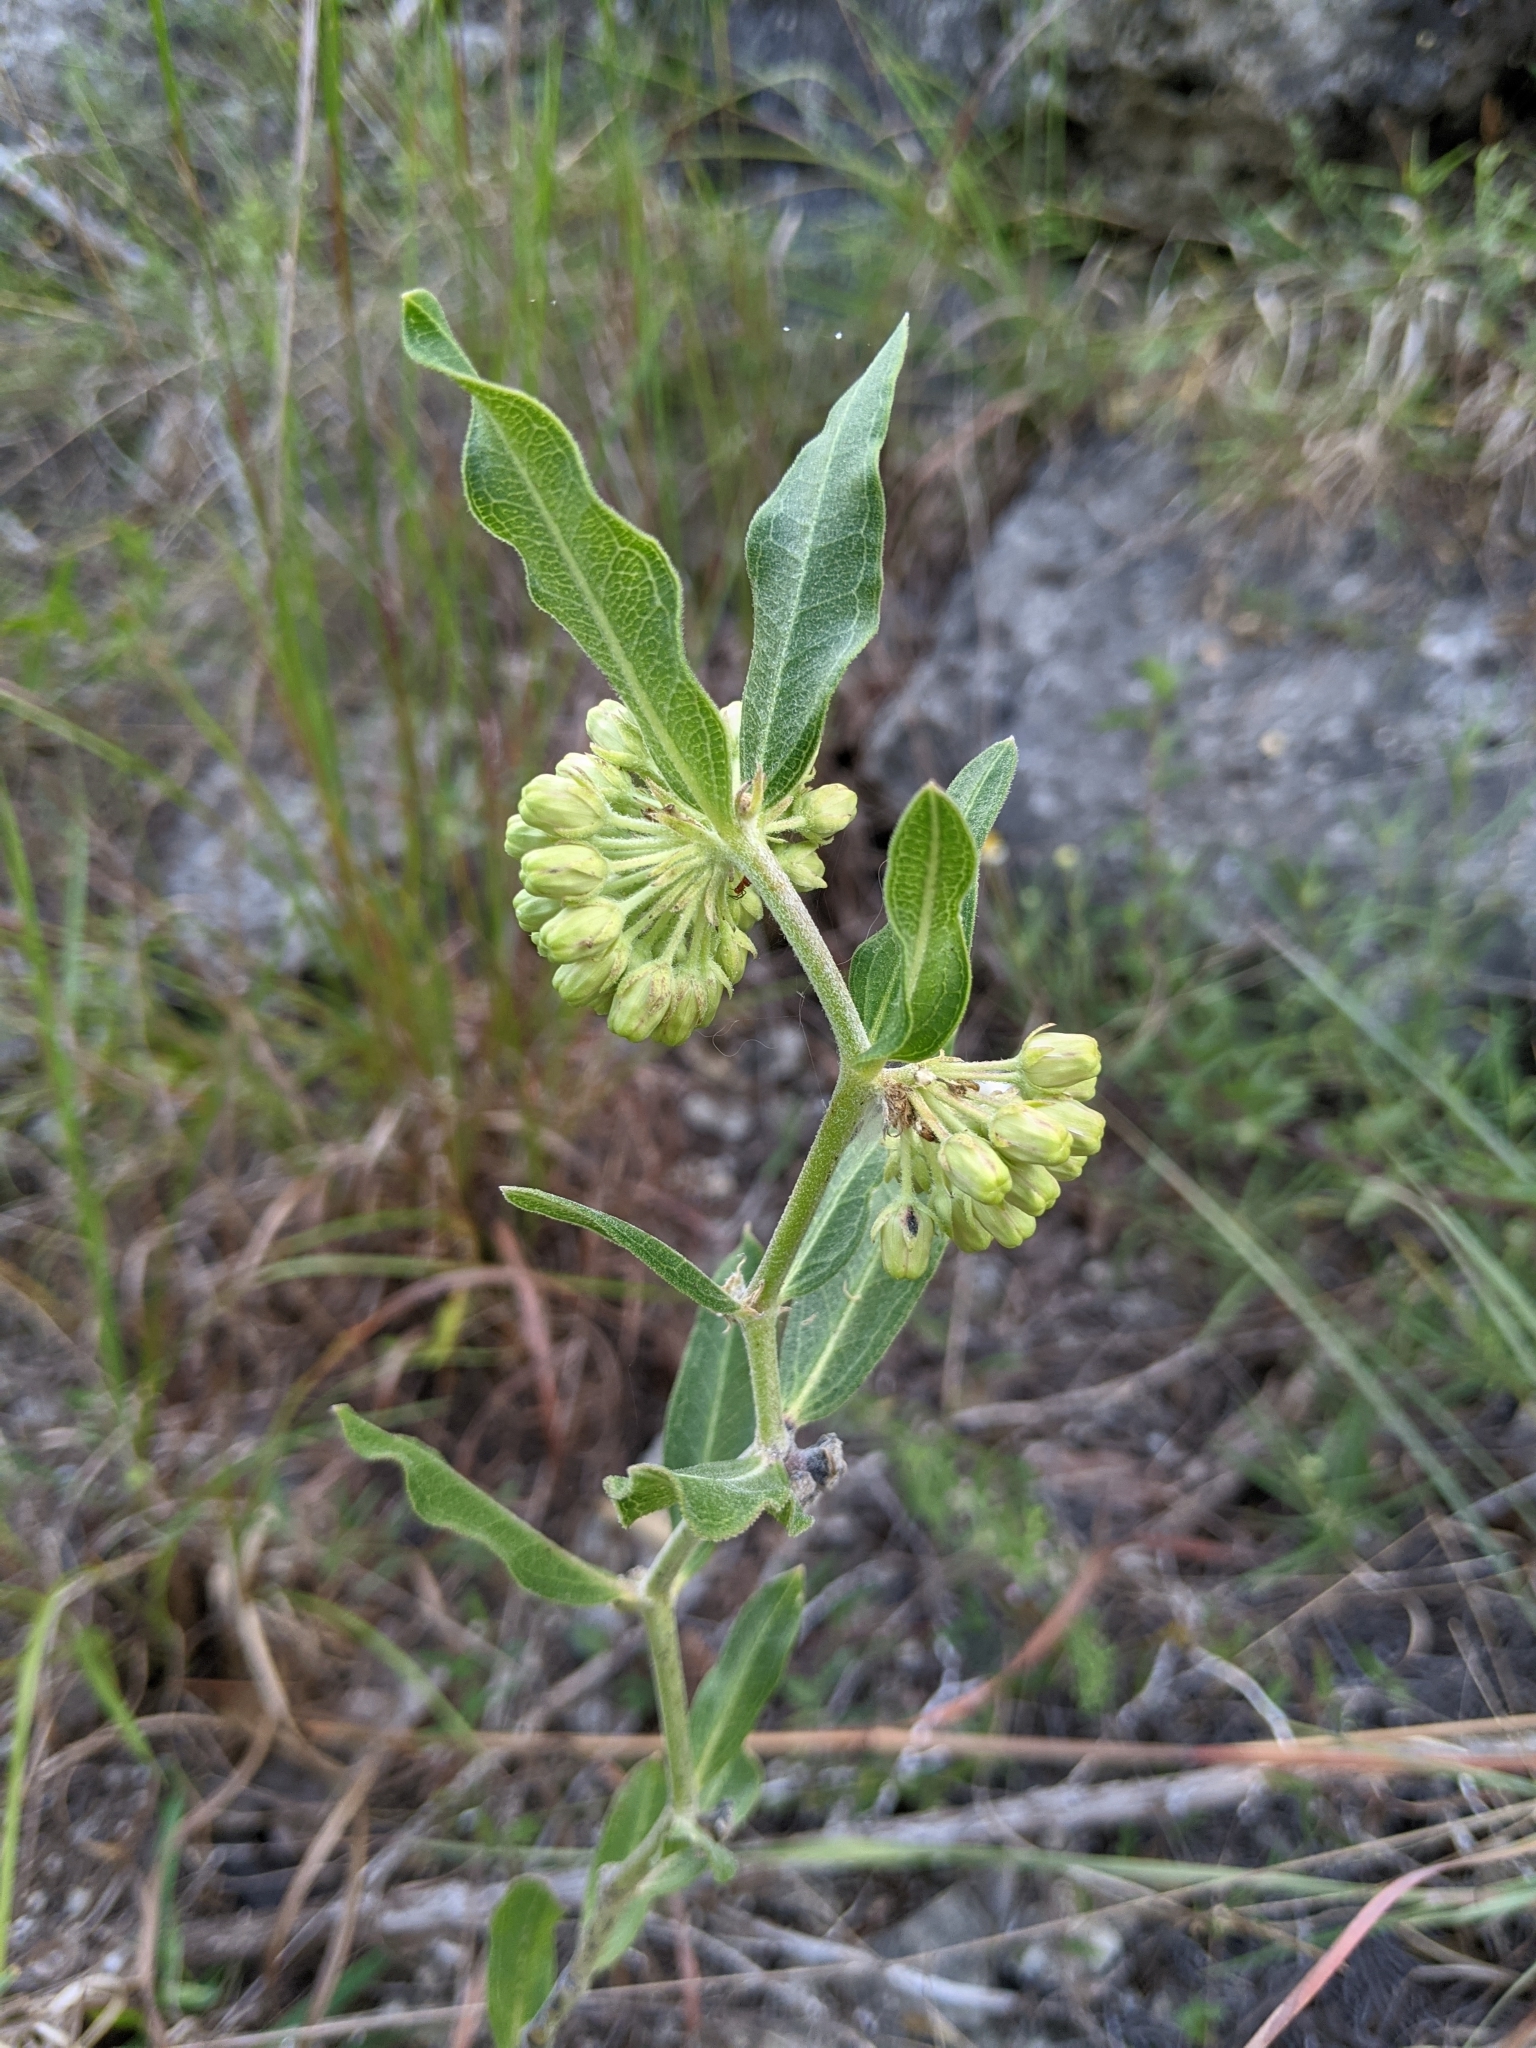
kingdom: Plantae
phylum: Tracheophyta
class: Magnoliopsida
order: Gentianales
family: Apocynaceae
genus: Asclepias
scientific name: Asclepias viridiflora
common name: Green comet milkweed
